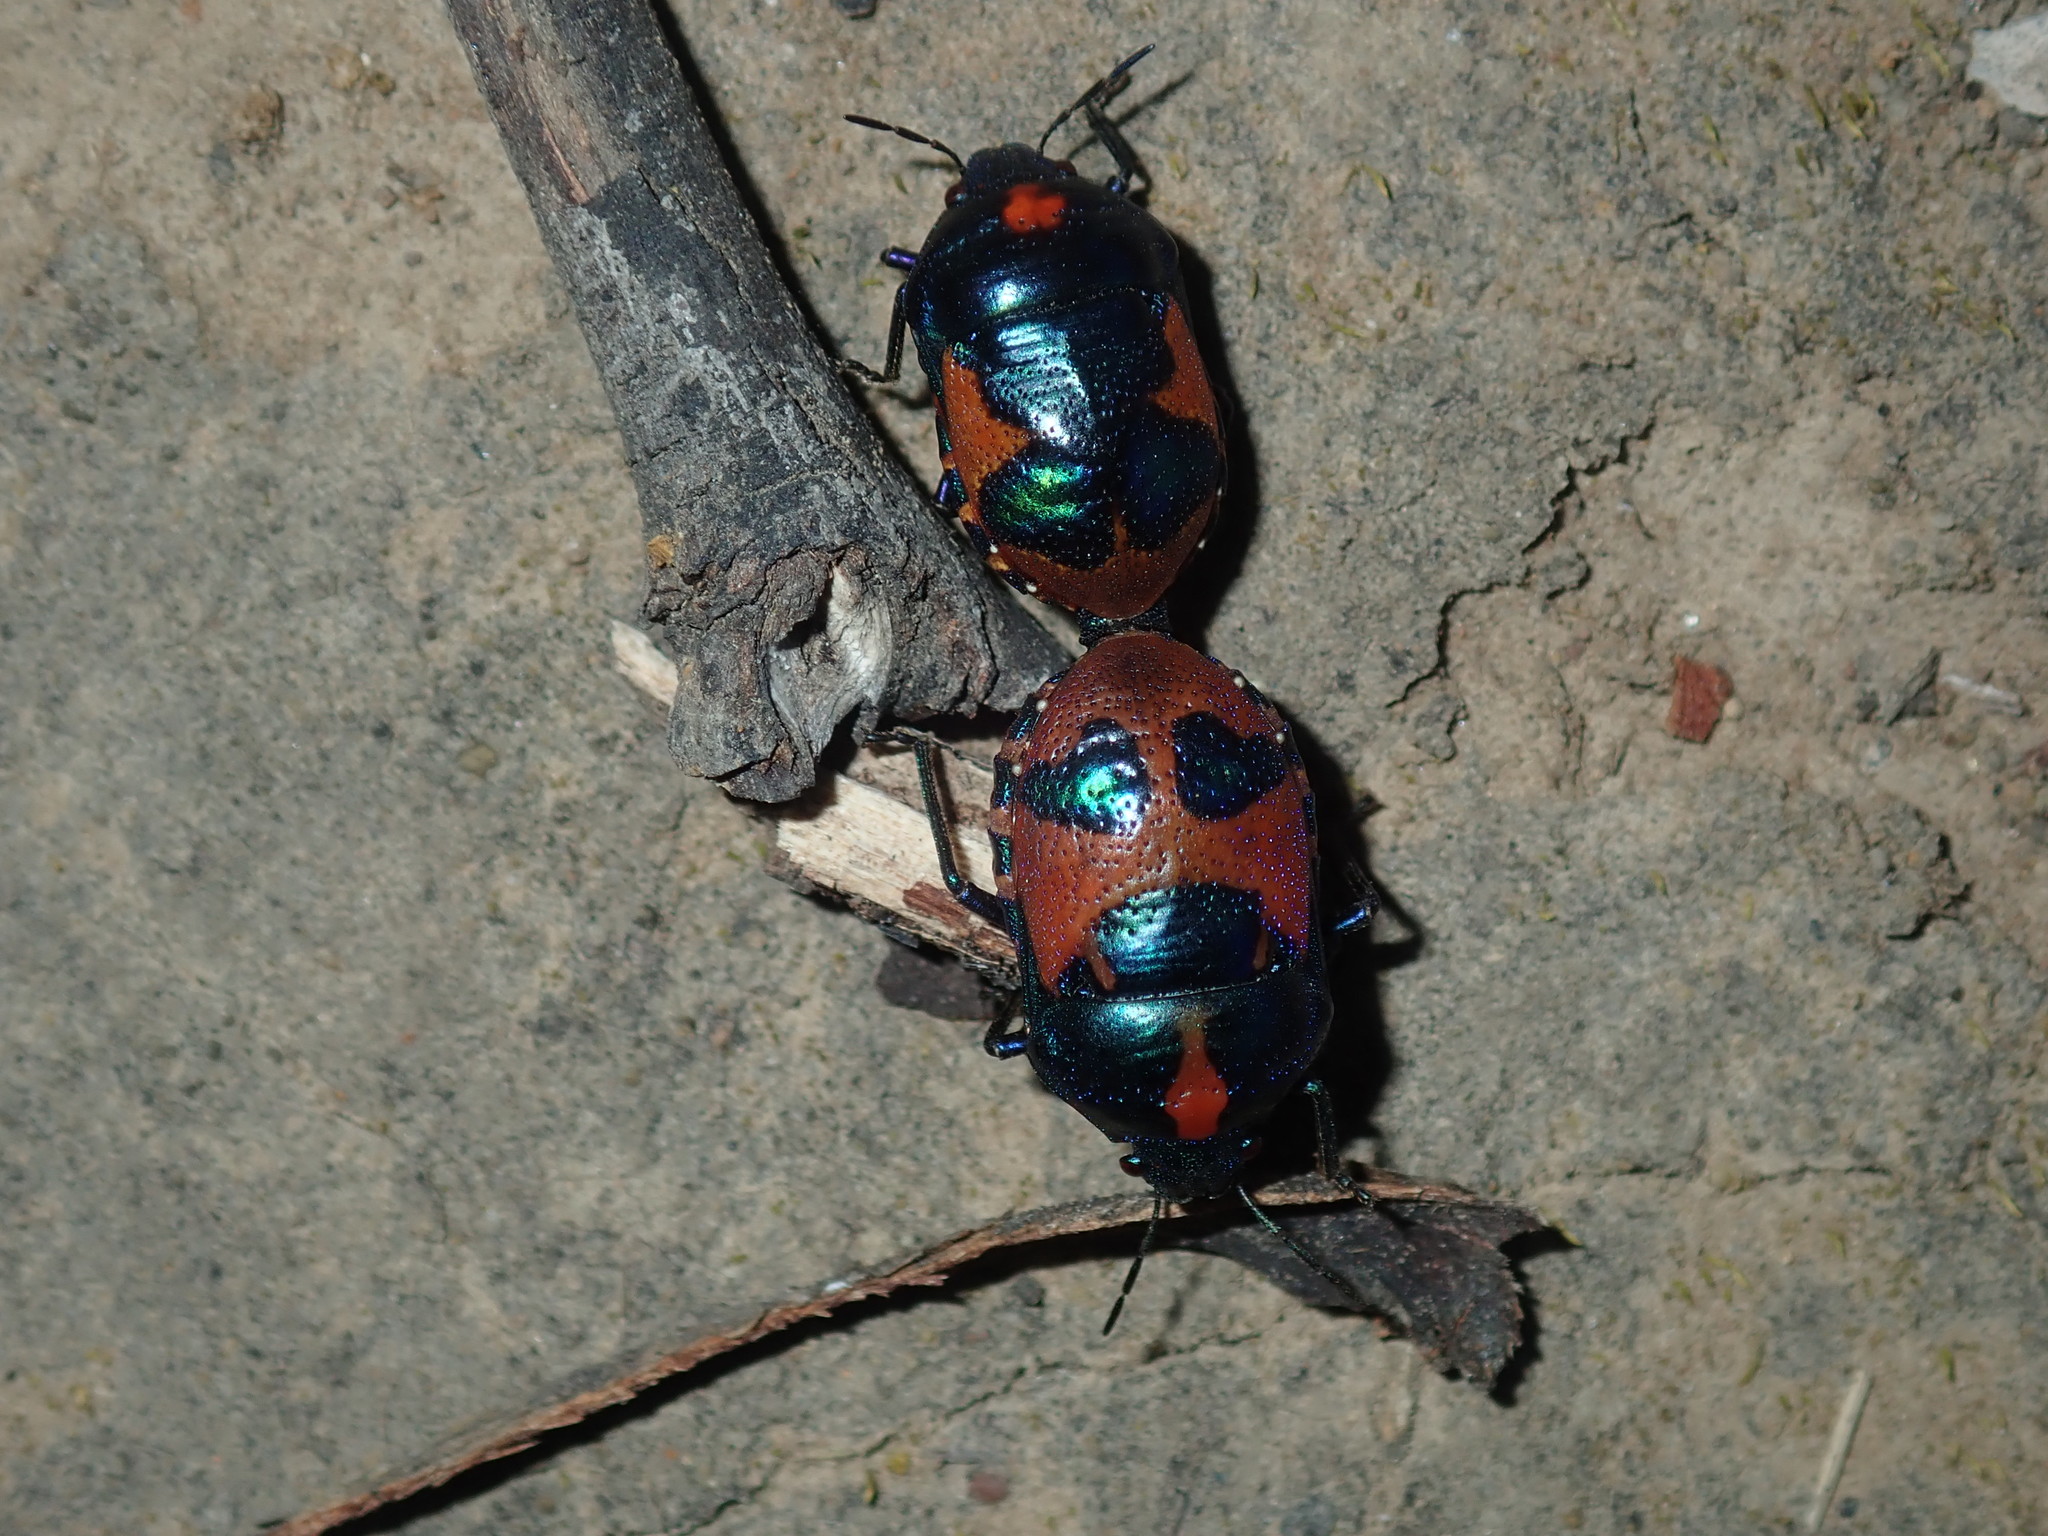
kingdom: Animalia
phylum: Arthropoda
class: Insecta
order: Hemiptera
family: Scutelleridae
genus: Choerocoris
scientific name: Choerocoris paganus
